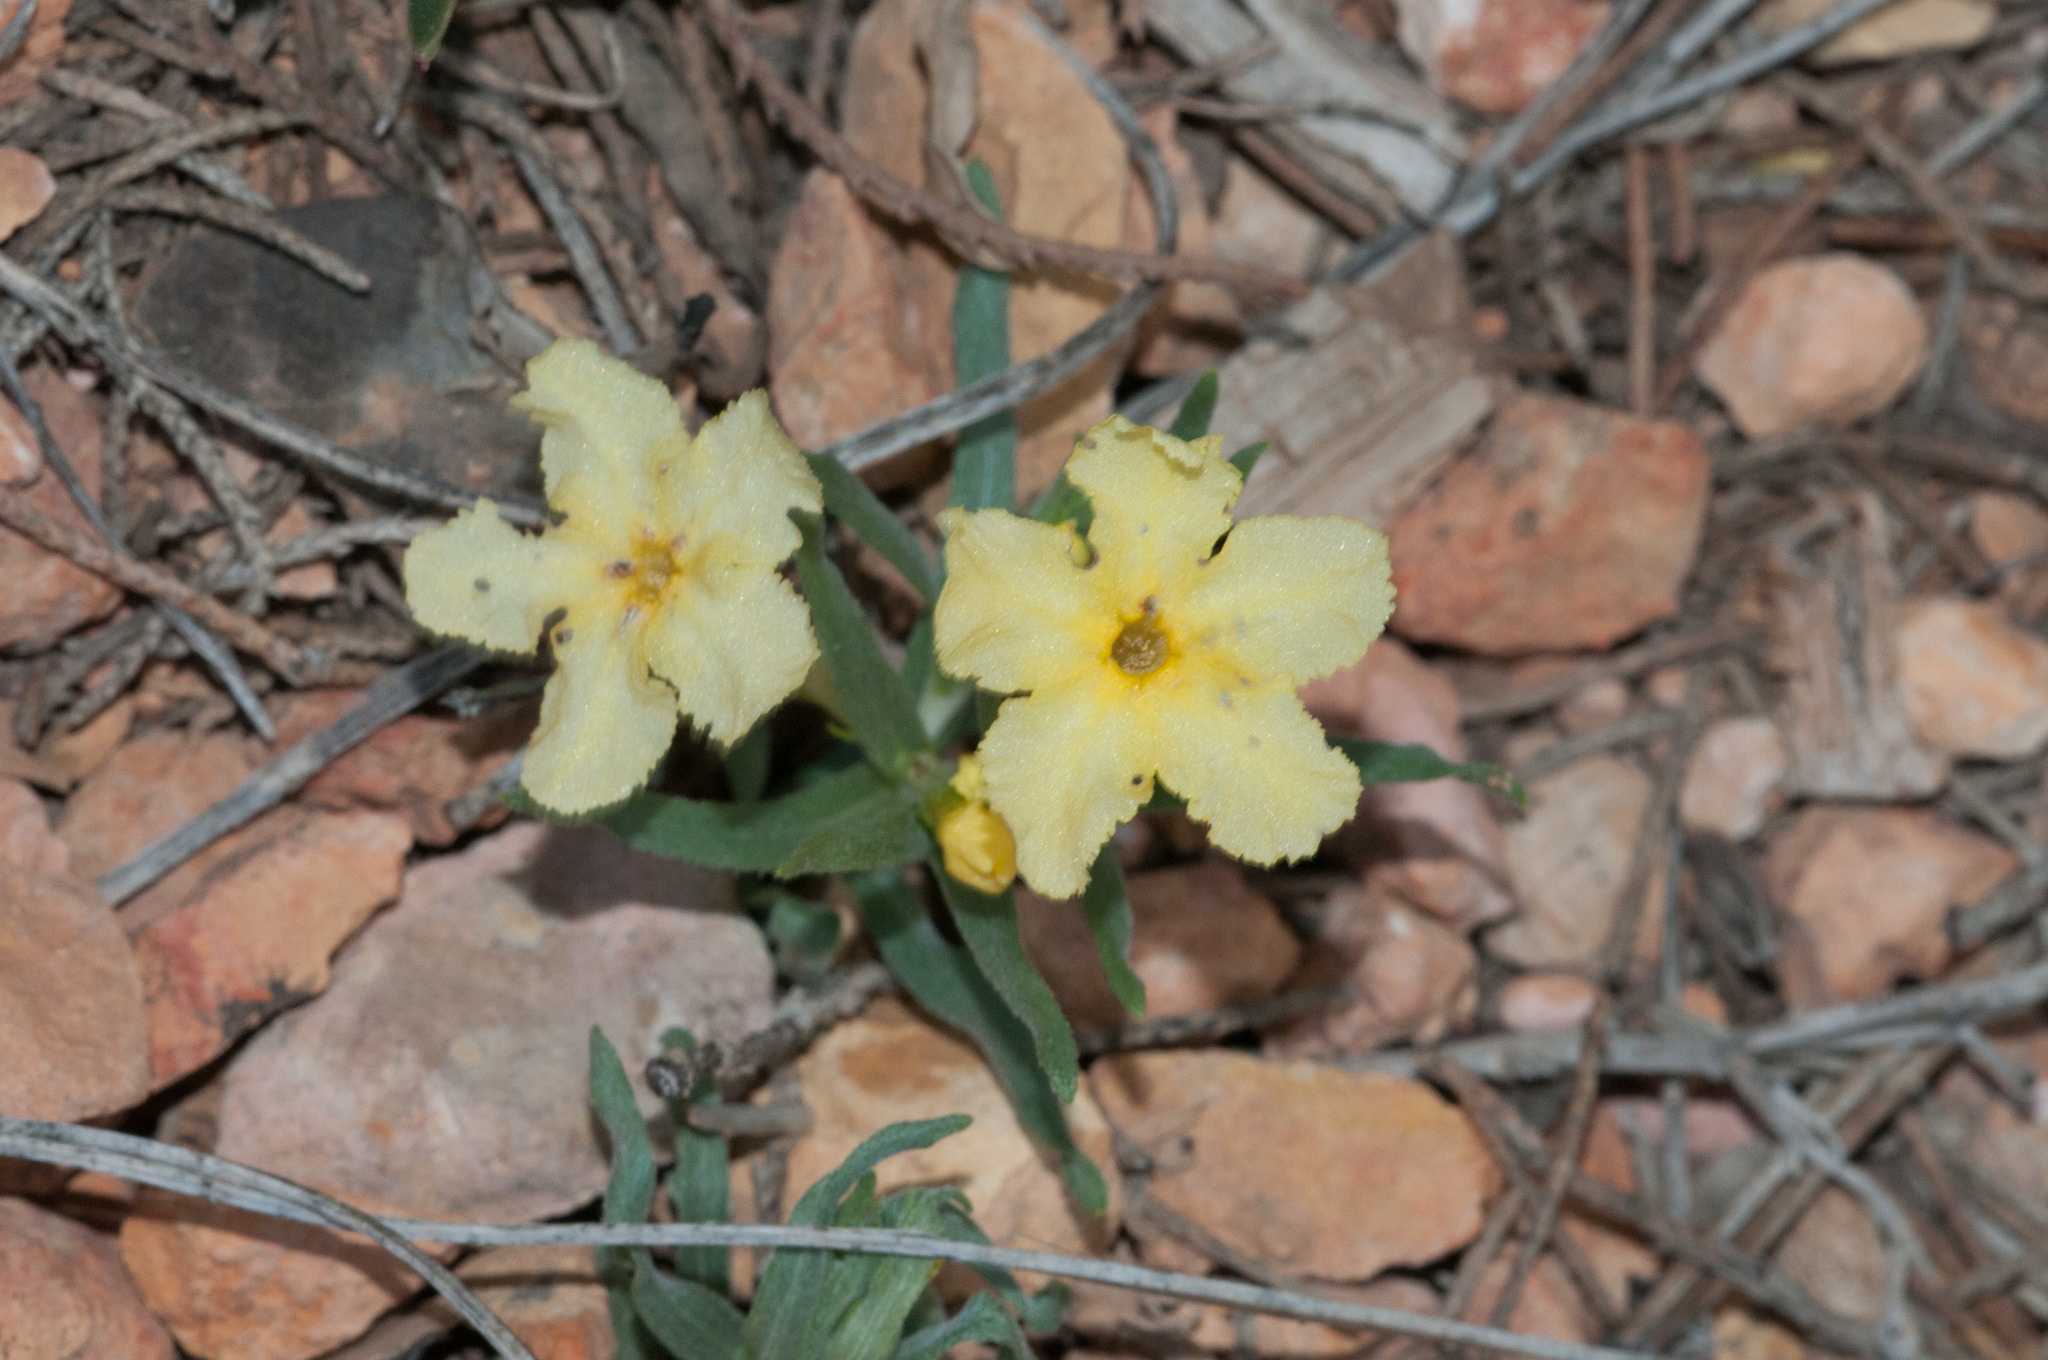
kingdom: Plantae
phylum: Tracheophyta
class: Magnoliopsida
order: Boraginales
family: Boraginaceae
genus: Lithospermum
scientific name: Lithospermum incisum
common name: Fringed gromwell
